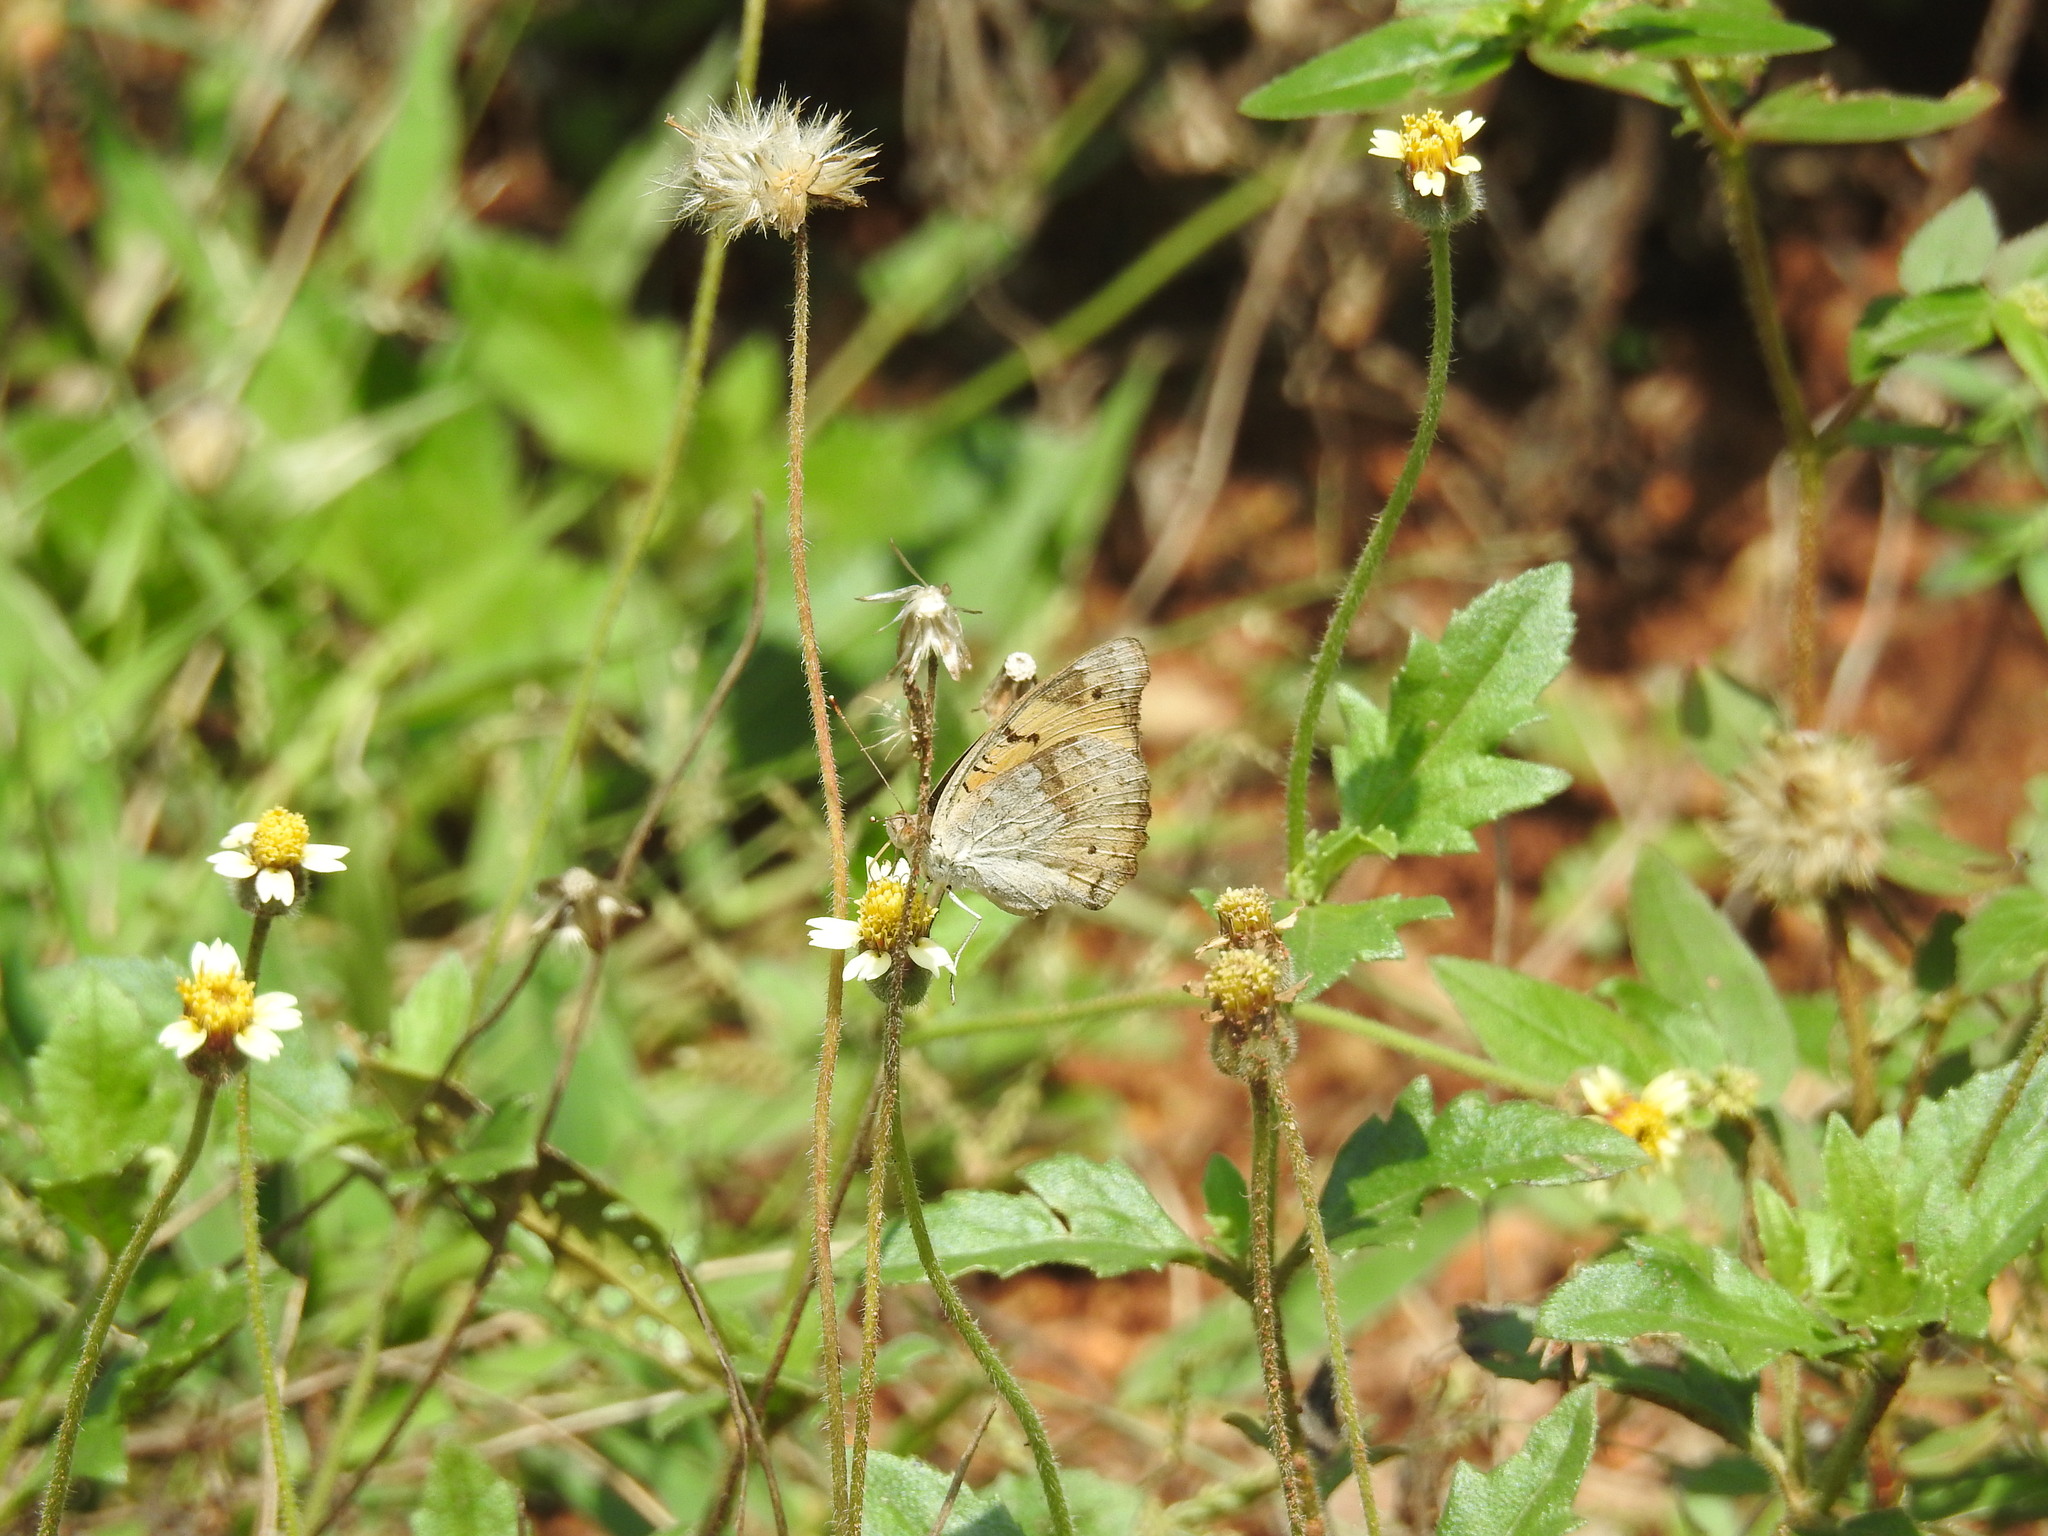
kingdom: Animalia
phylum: Arthropoda
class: Insecta
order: Lepidoptera
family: Nymphalidae
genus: Junonia
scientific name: Junonia hierta
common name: Yellow pansy
